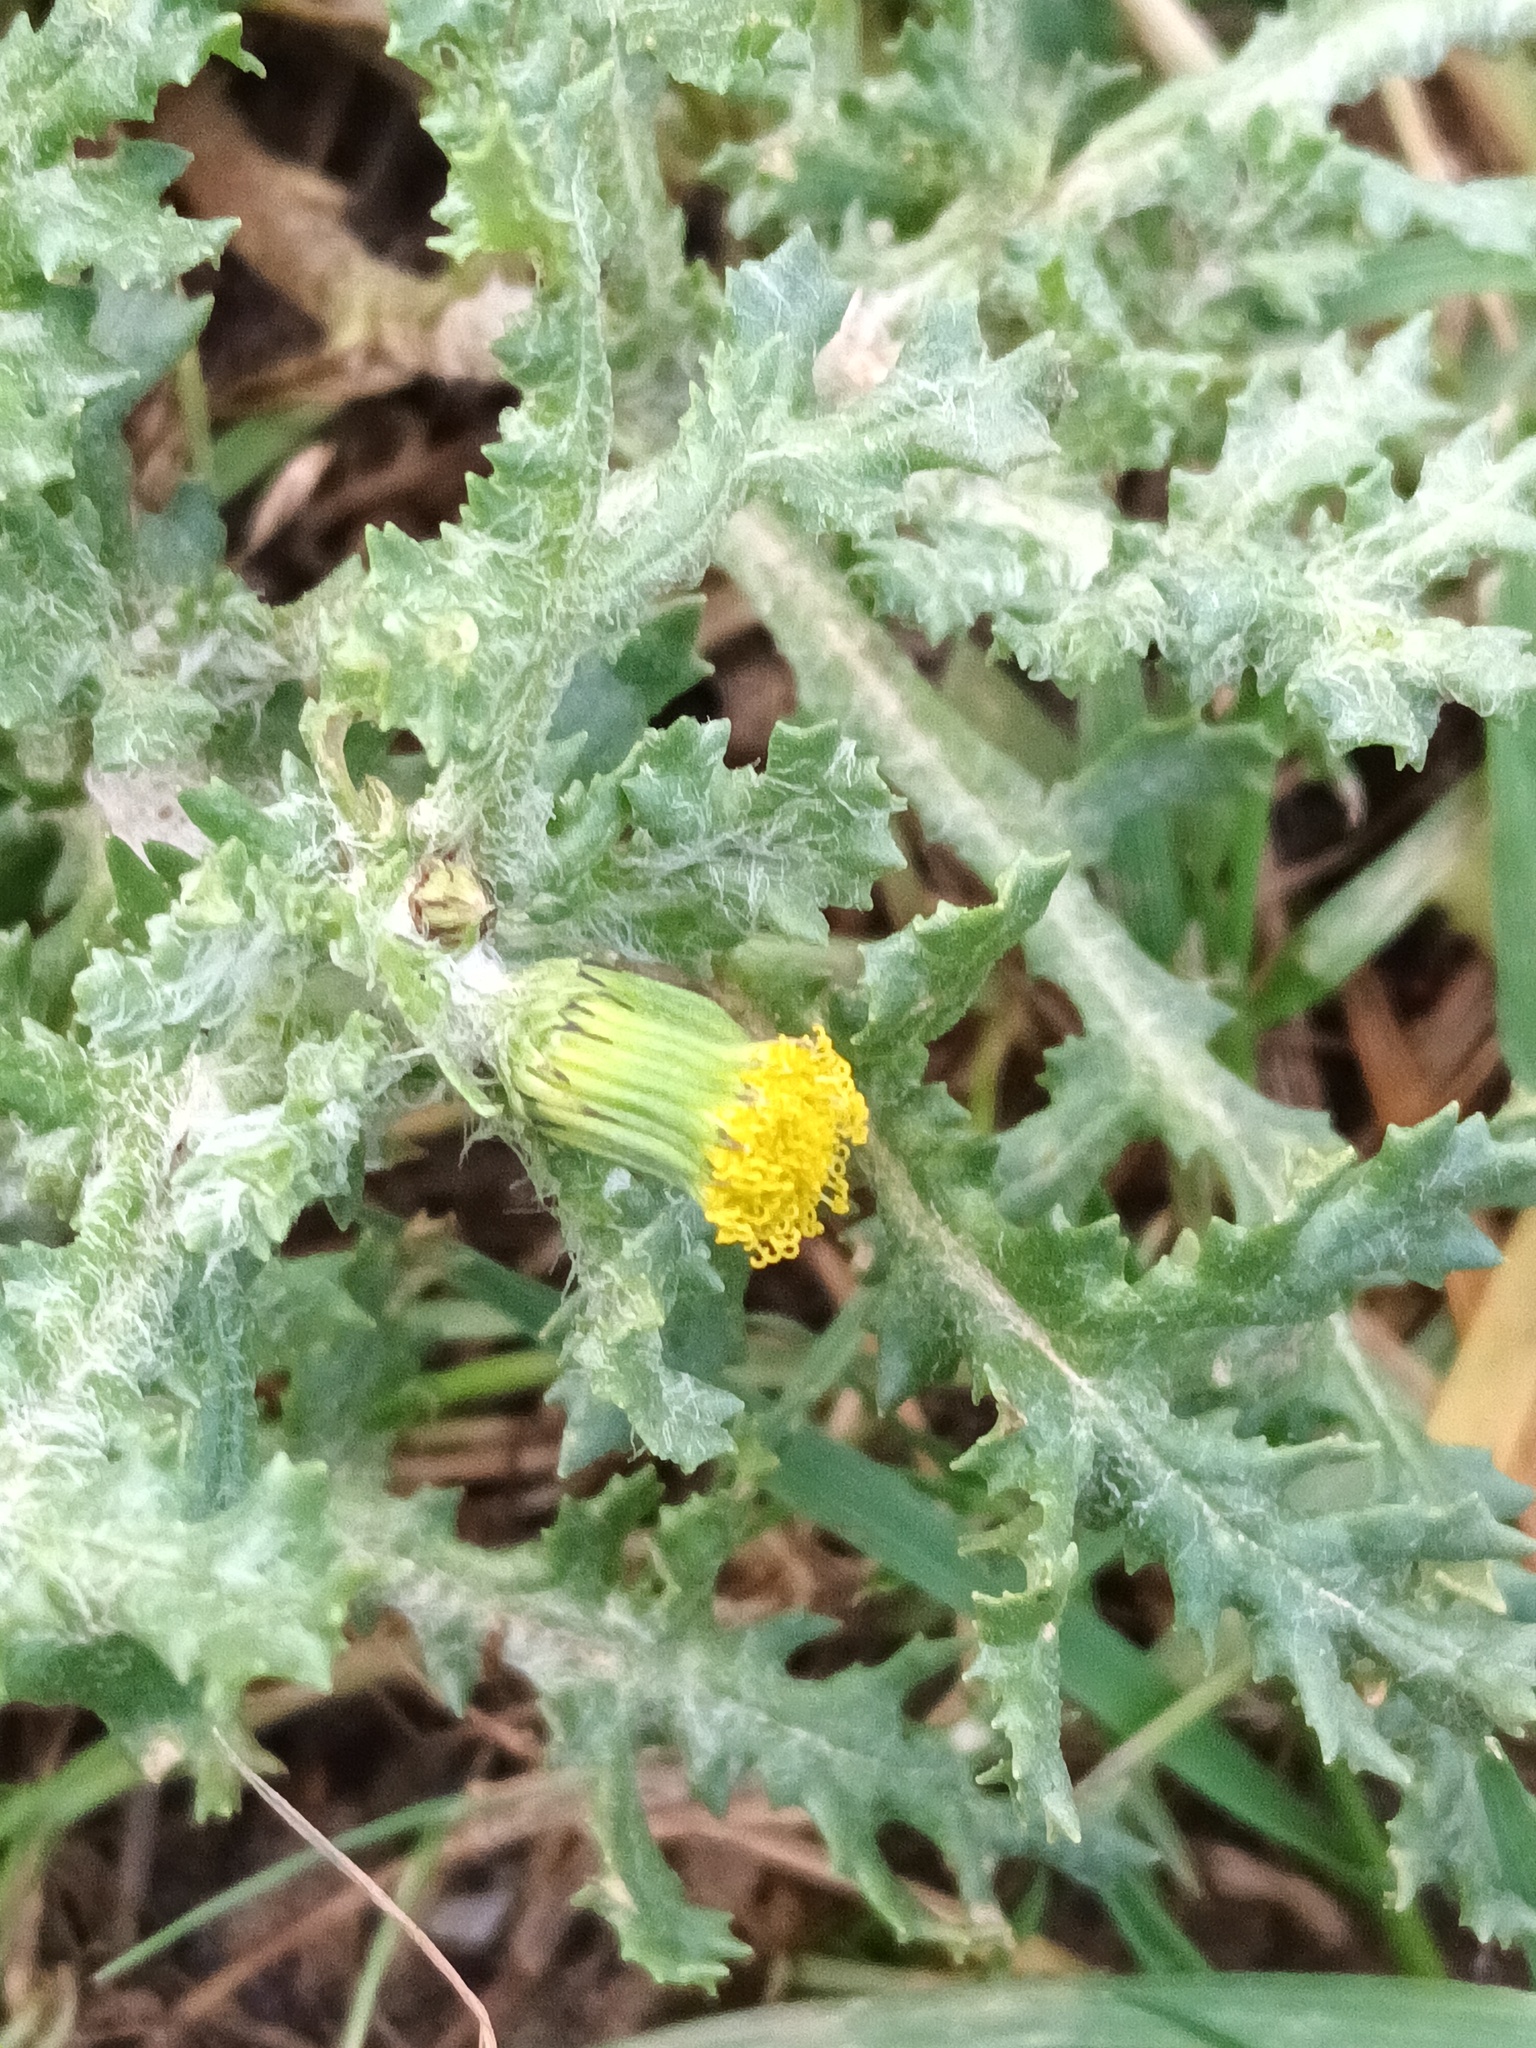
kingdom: Plantae
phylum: Tracheophyta
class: Magnoliopsida
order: Asterales
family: Asteraceae
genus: Senecio
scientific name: Senecio vulgaris
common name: Old-man-in-the-spring
